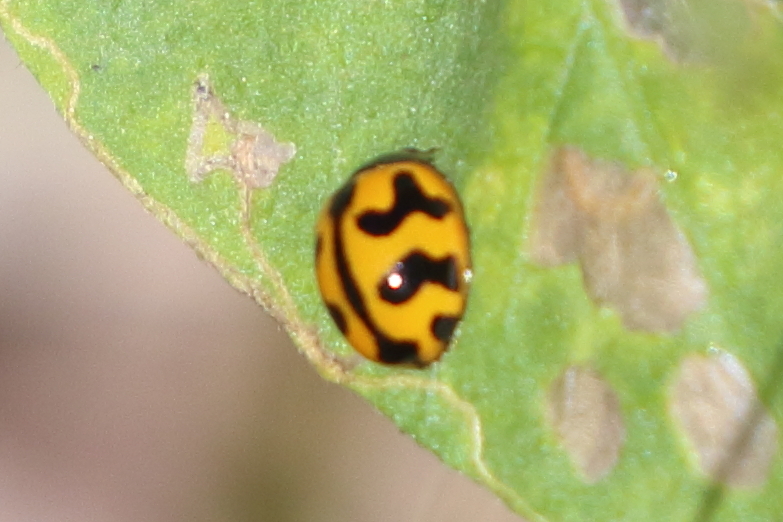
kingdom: Animalia
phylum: Arthropoda
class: Insecta
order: Coleoptera
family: Coccinellidae
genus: Coccinella
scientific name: Coccinella transversalis
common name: Transverse lady beetle
